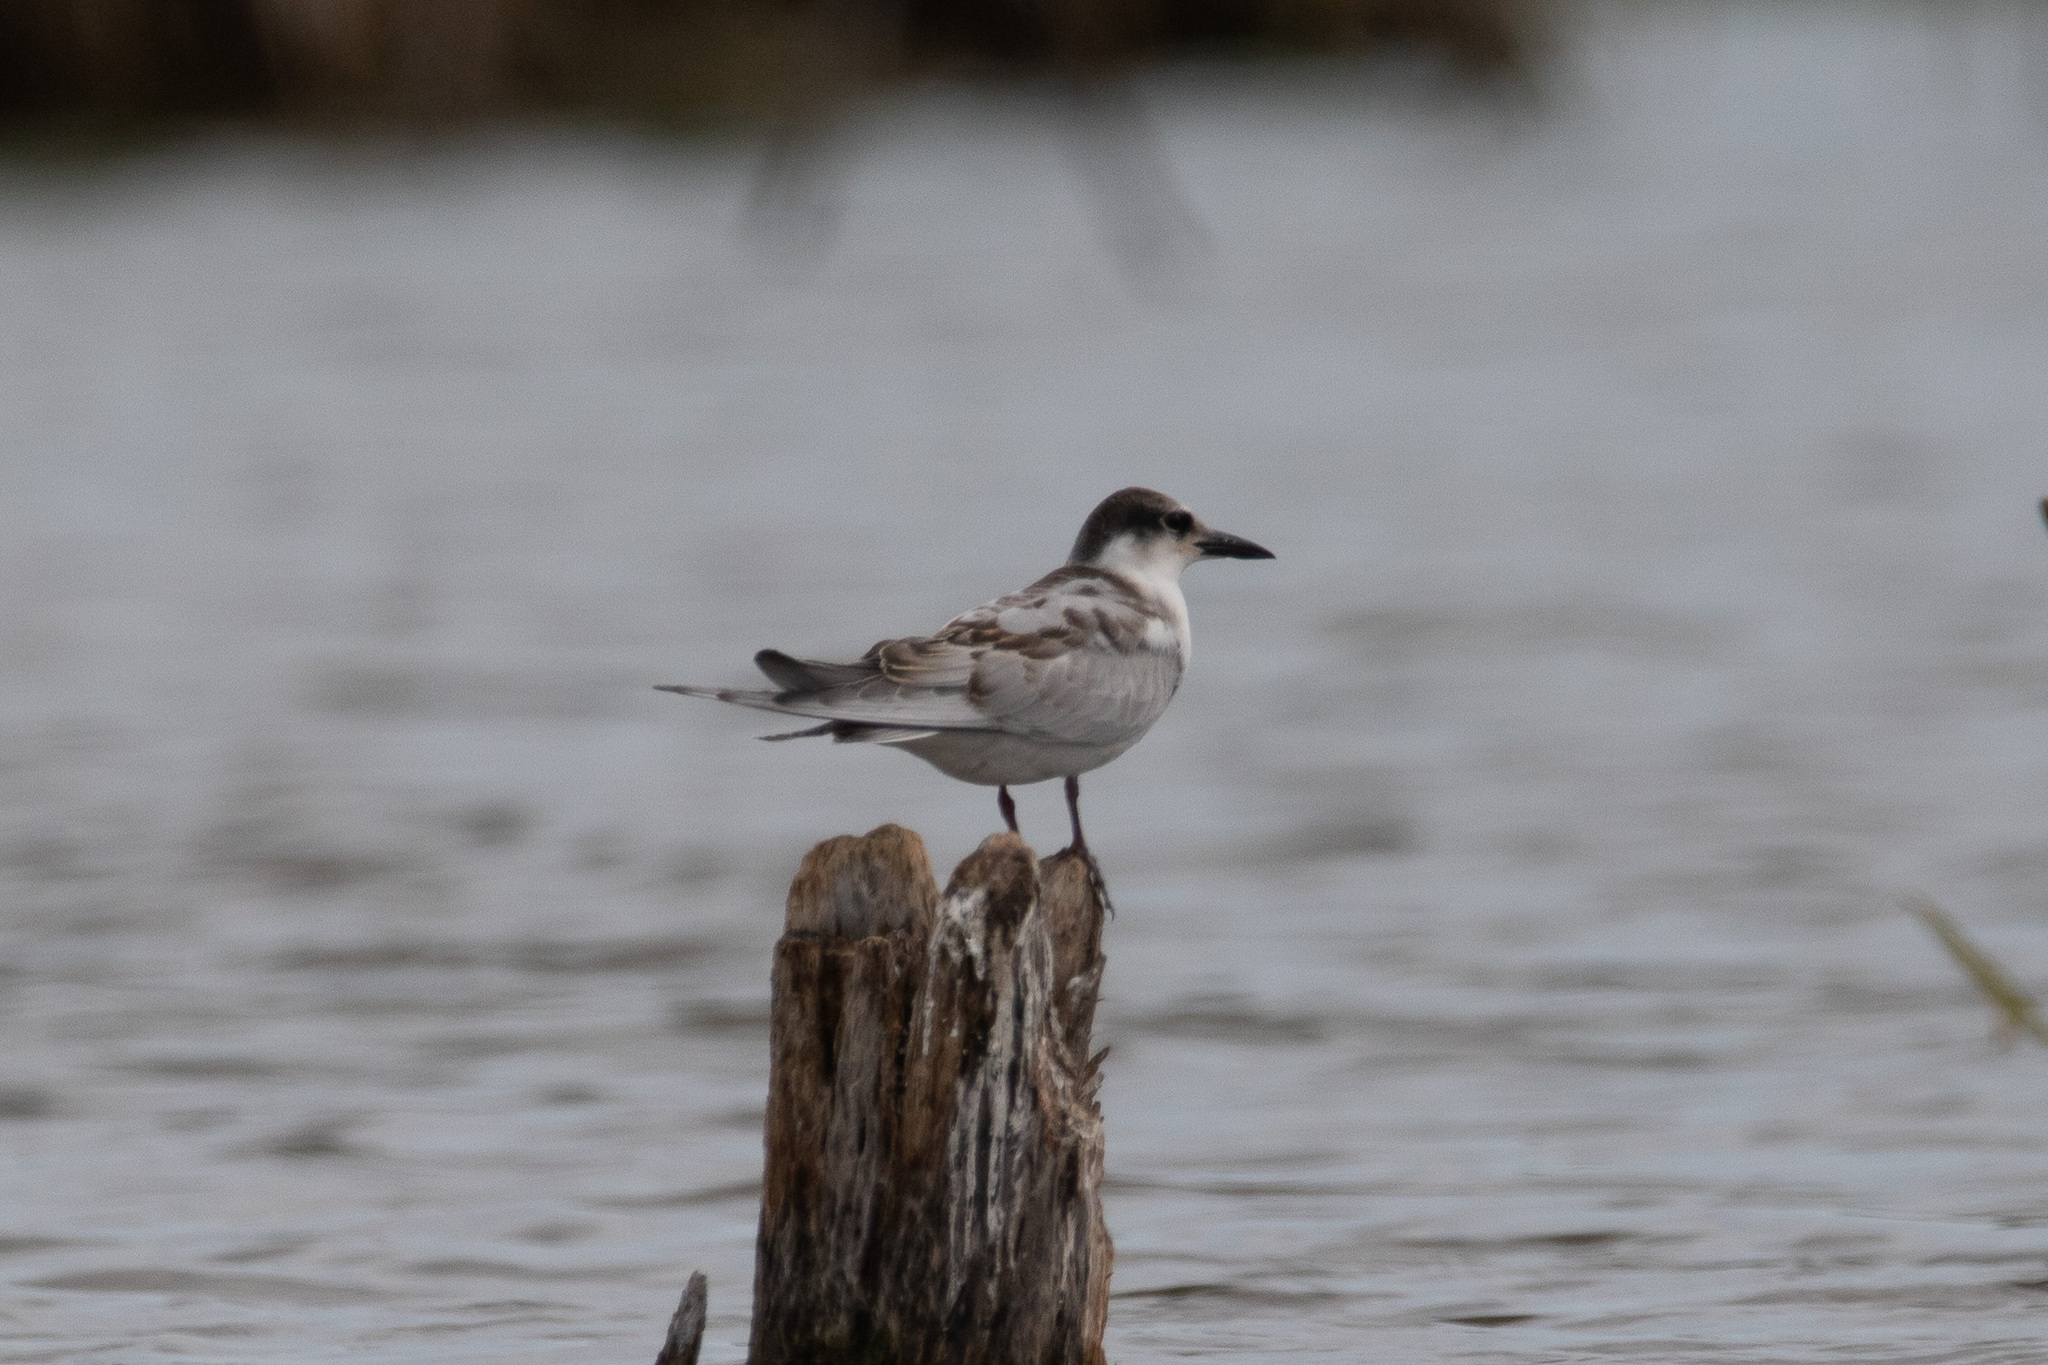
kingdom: Animalia
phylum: Chordata
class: Aves
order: Charadriiformes
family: Laridae
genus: Chlidonias
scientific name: Chlidonias hybrida
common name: Whiskered tern
